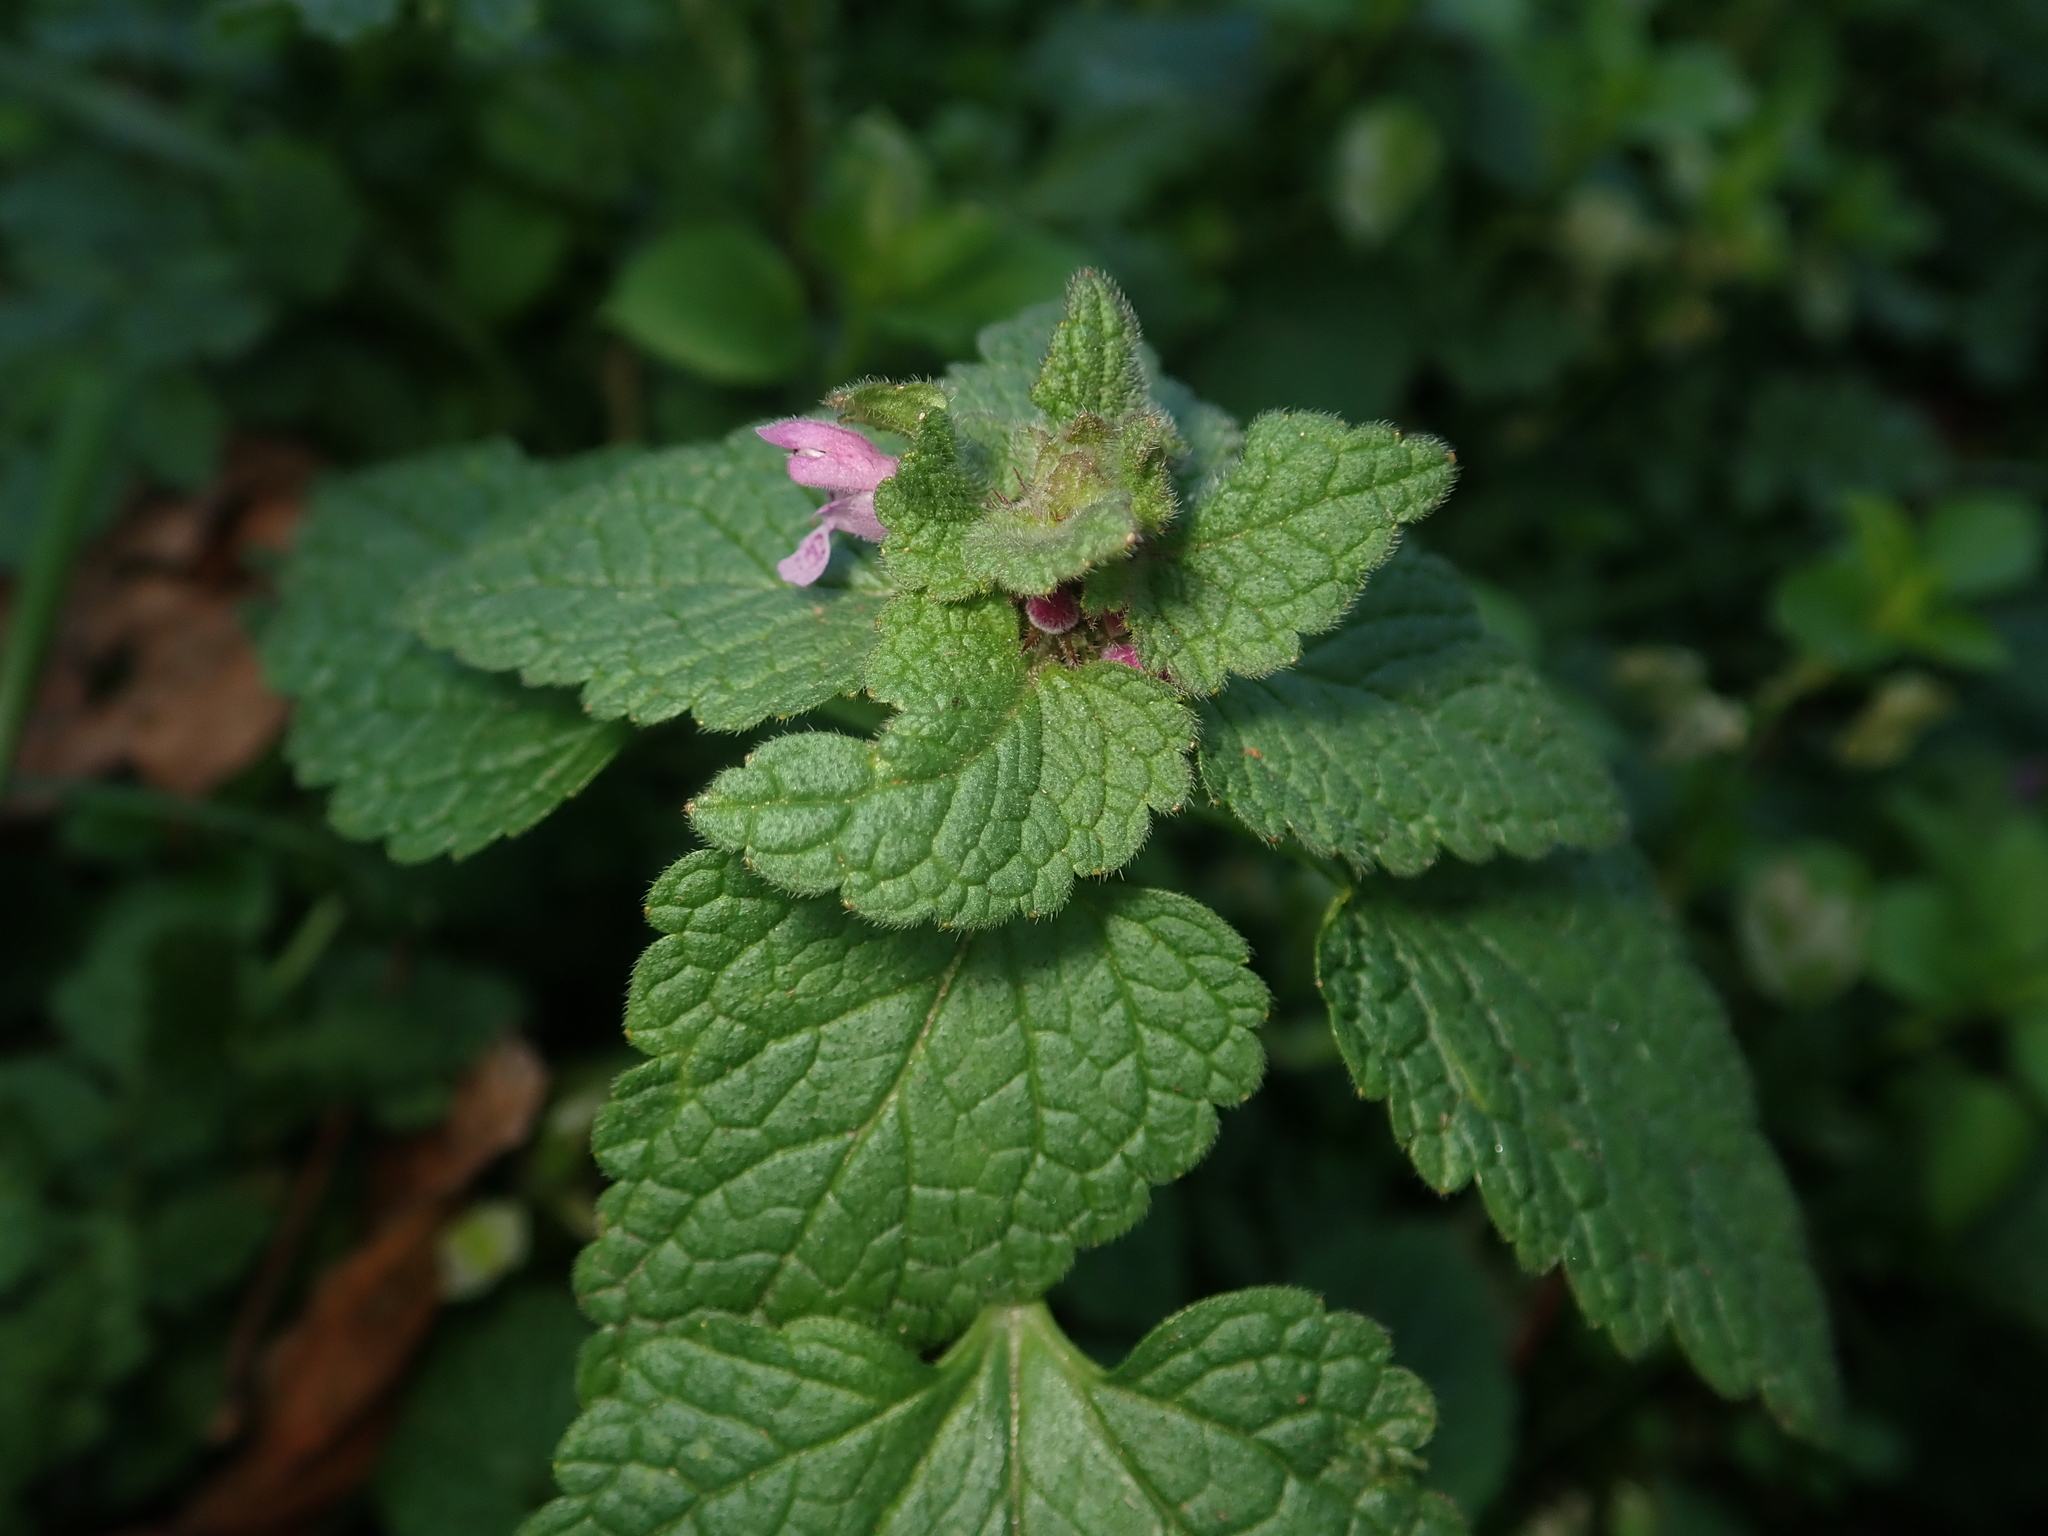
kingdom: Plantae
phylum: Tracheophyta
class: Magnoliopsida
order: Lamiales
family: Lamiaceae
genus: Lamium
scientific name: Lamium purpureum
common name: Red dead-nettle
